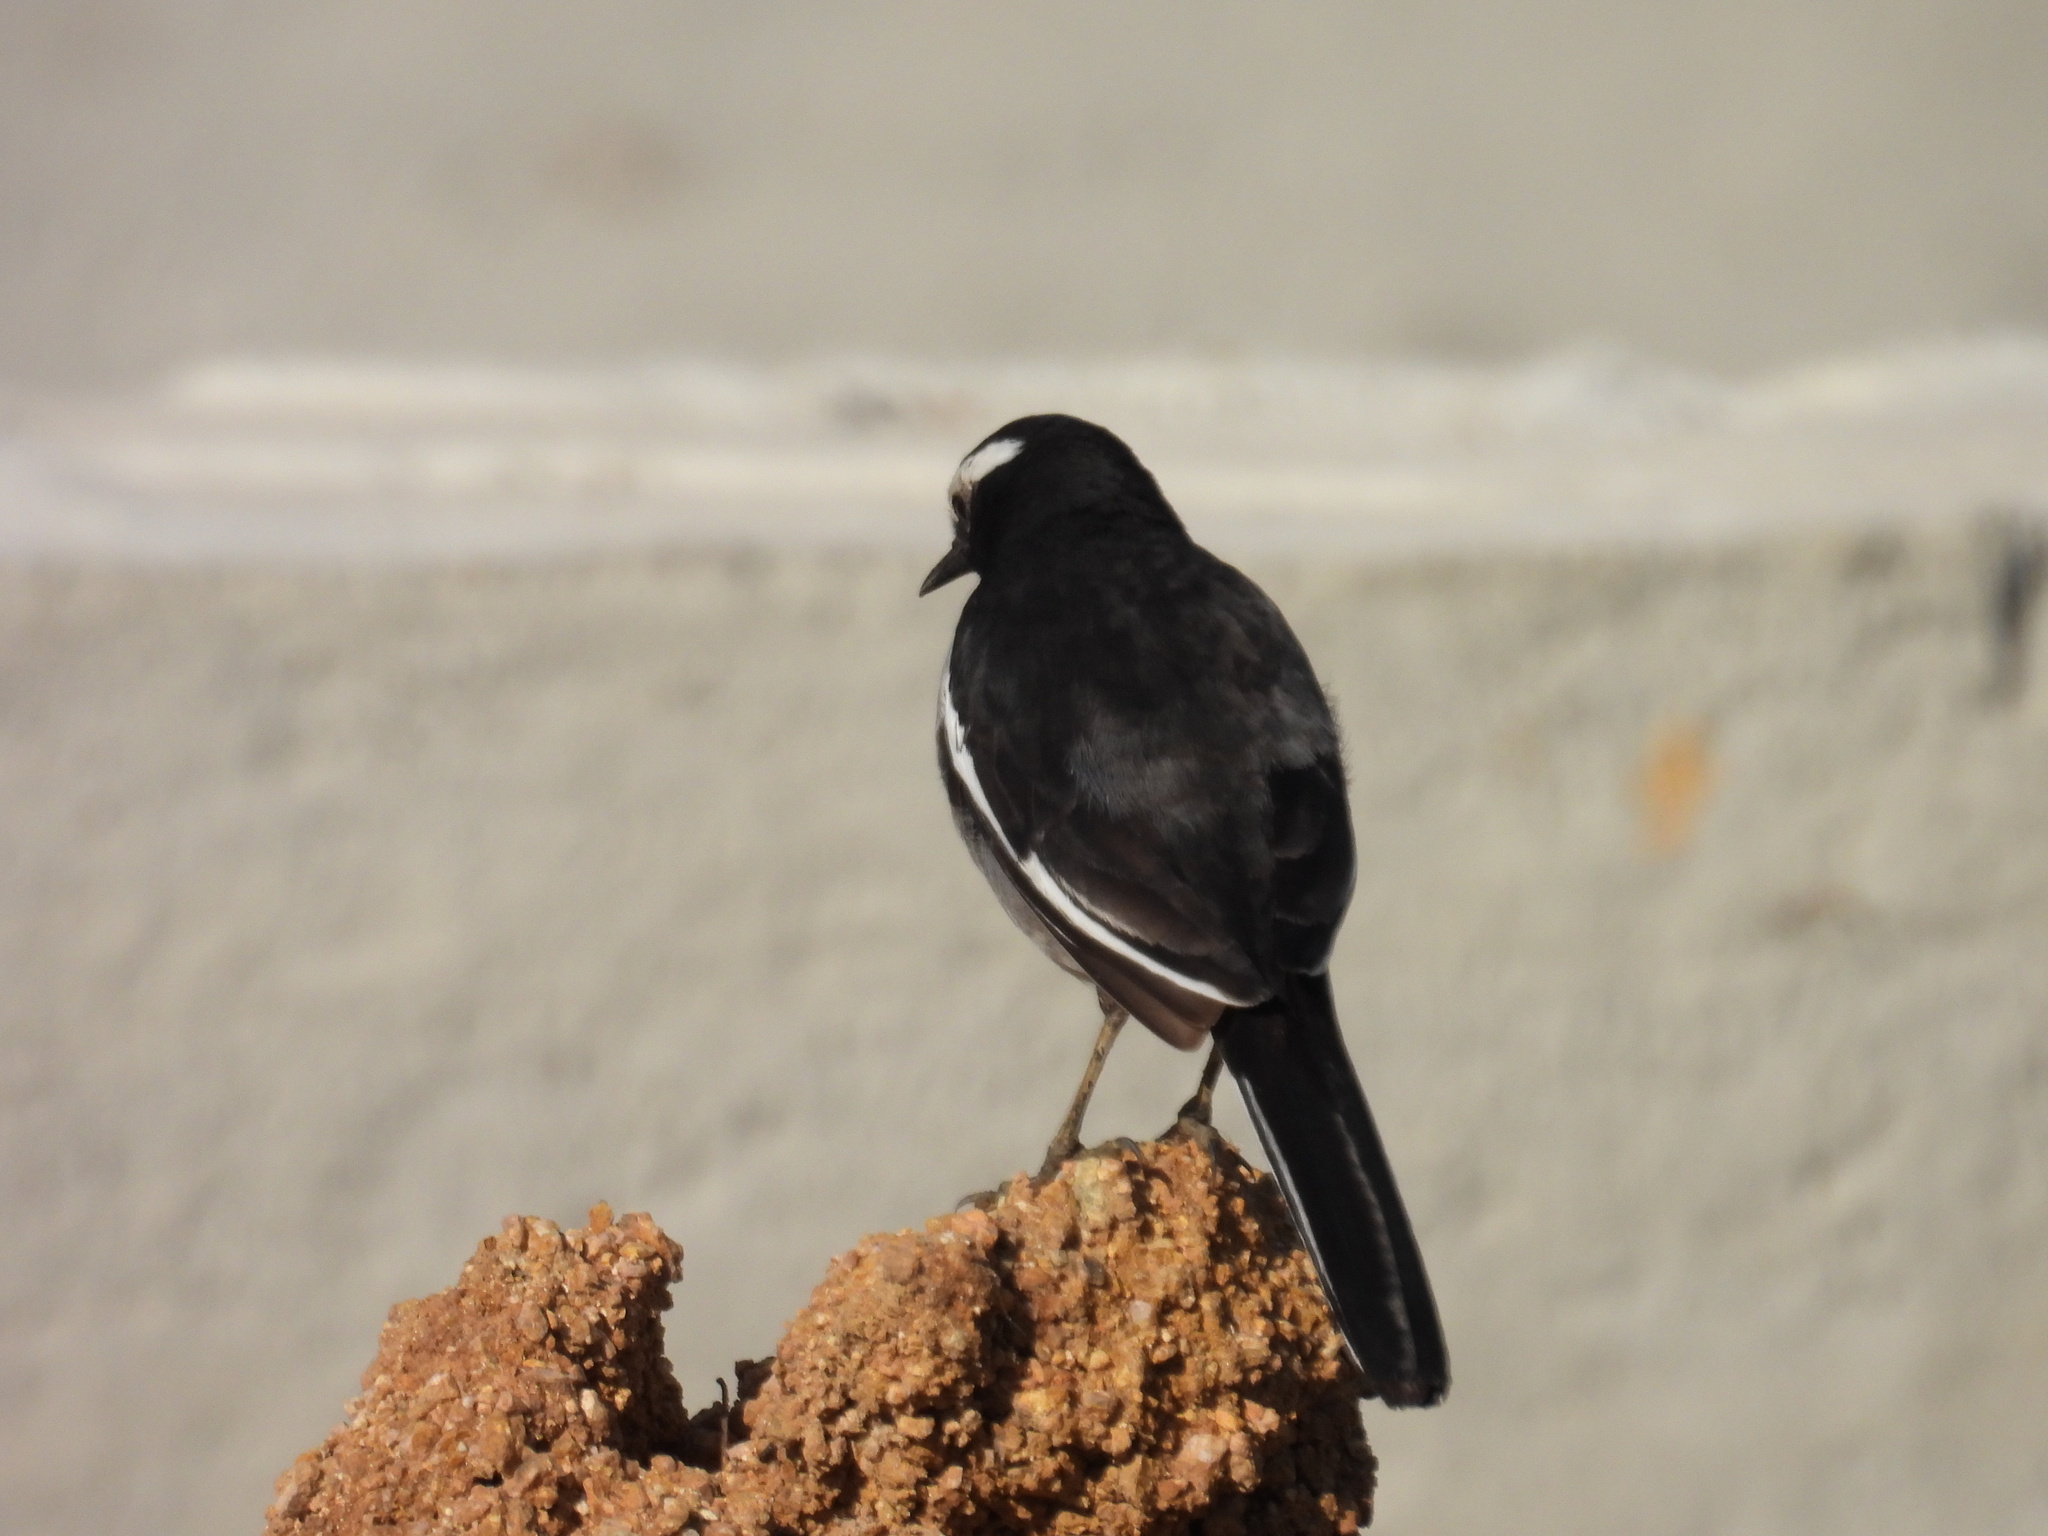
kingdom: Animalia
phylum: Chordata
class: Aves
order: Passeriformes
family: Motacillidae
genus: Motacilla
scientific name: Motacilla maderaspatensis
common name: White-browed wagtail
